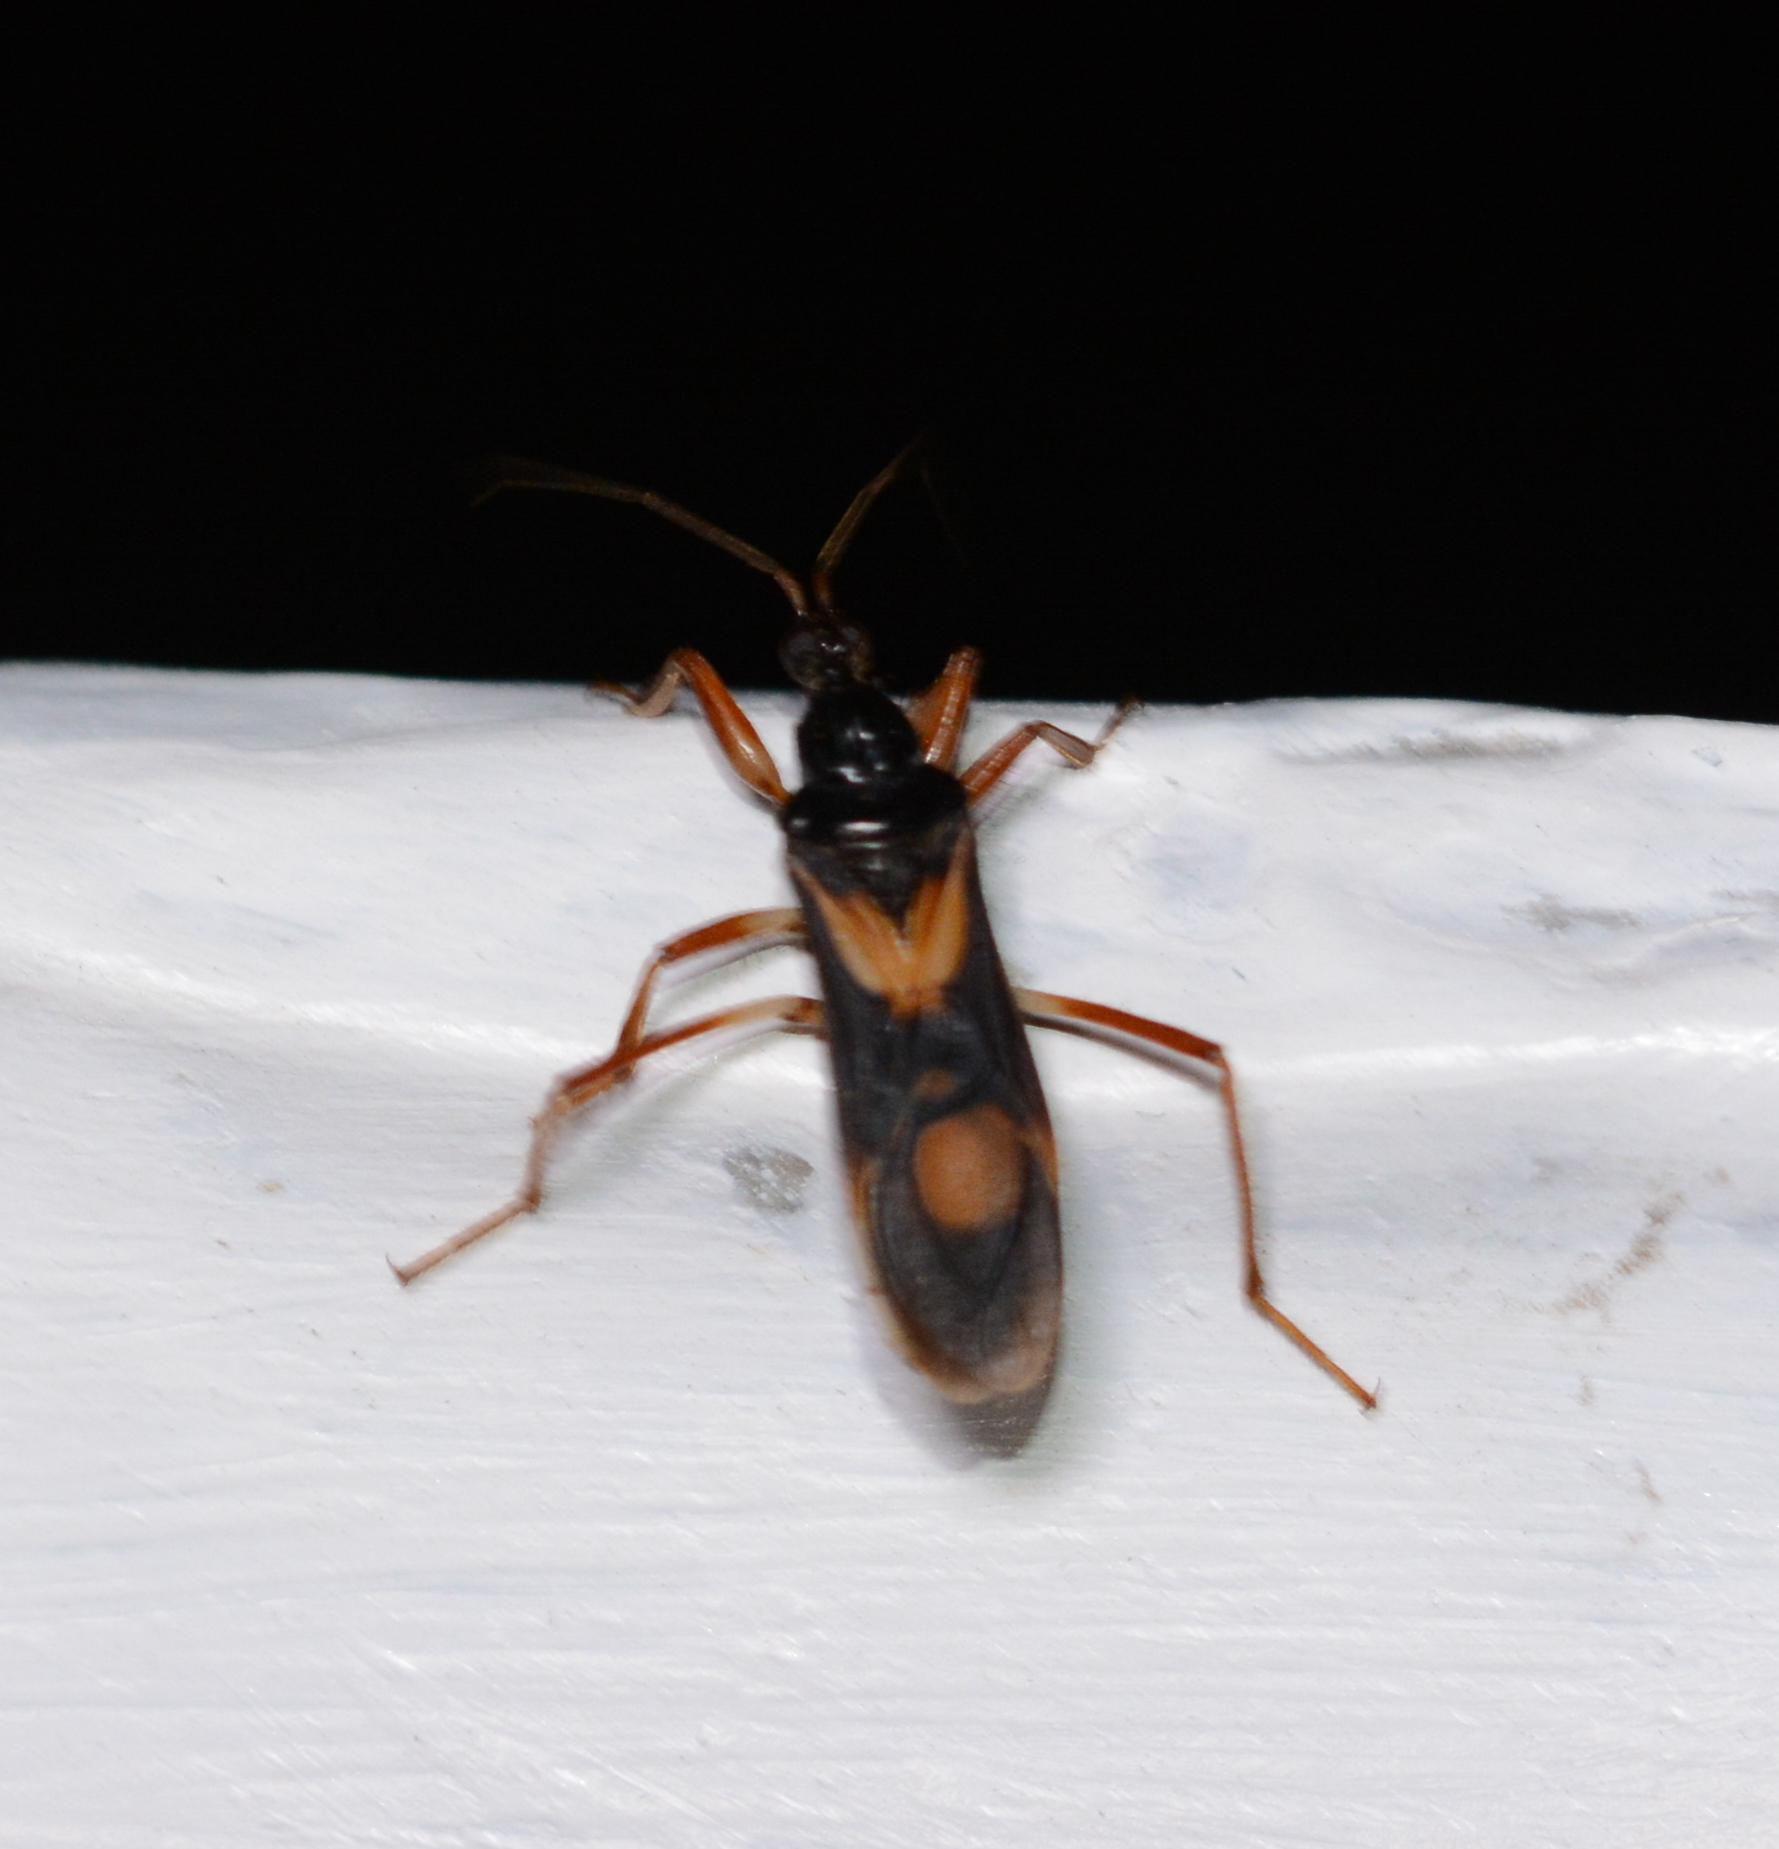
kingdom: Animalia
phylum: Arthropoda
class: Insecta
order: Hemiptera
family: Reduviidae
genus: Rasahus
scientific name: Rasahus hamatus
